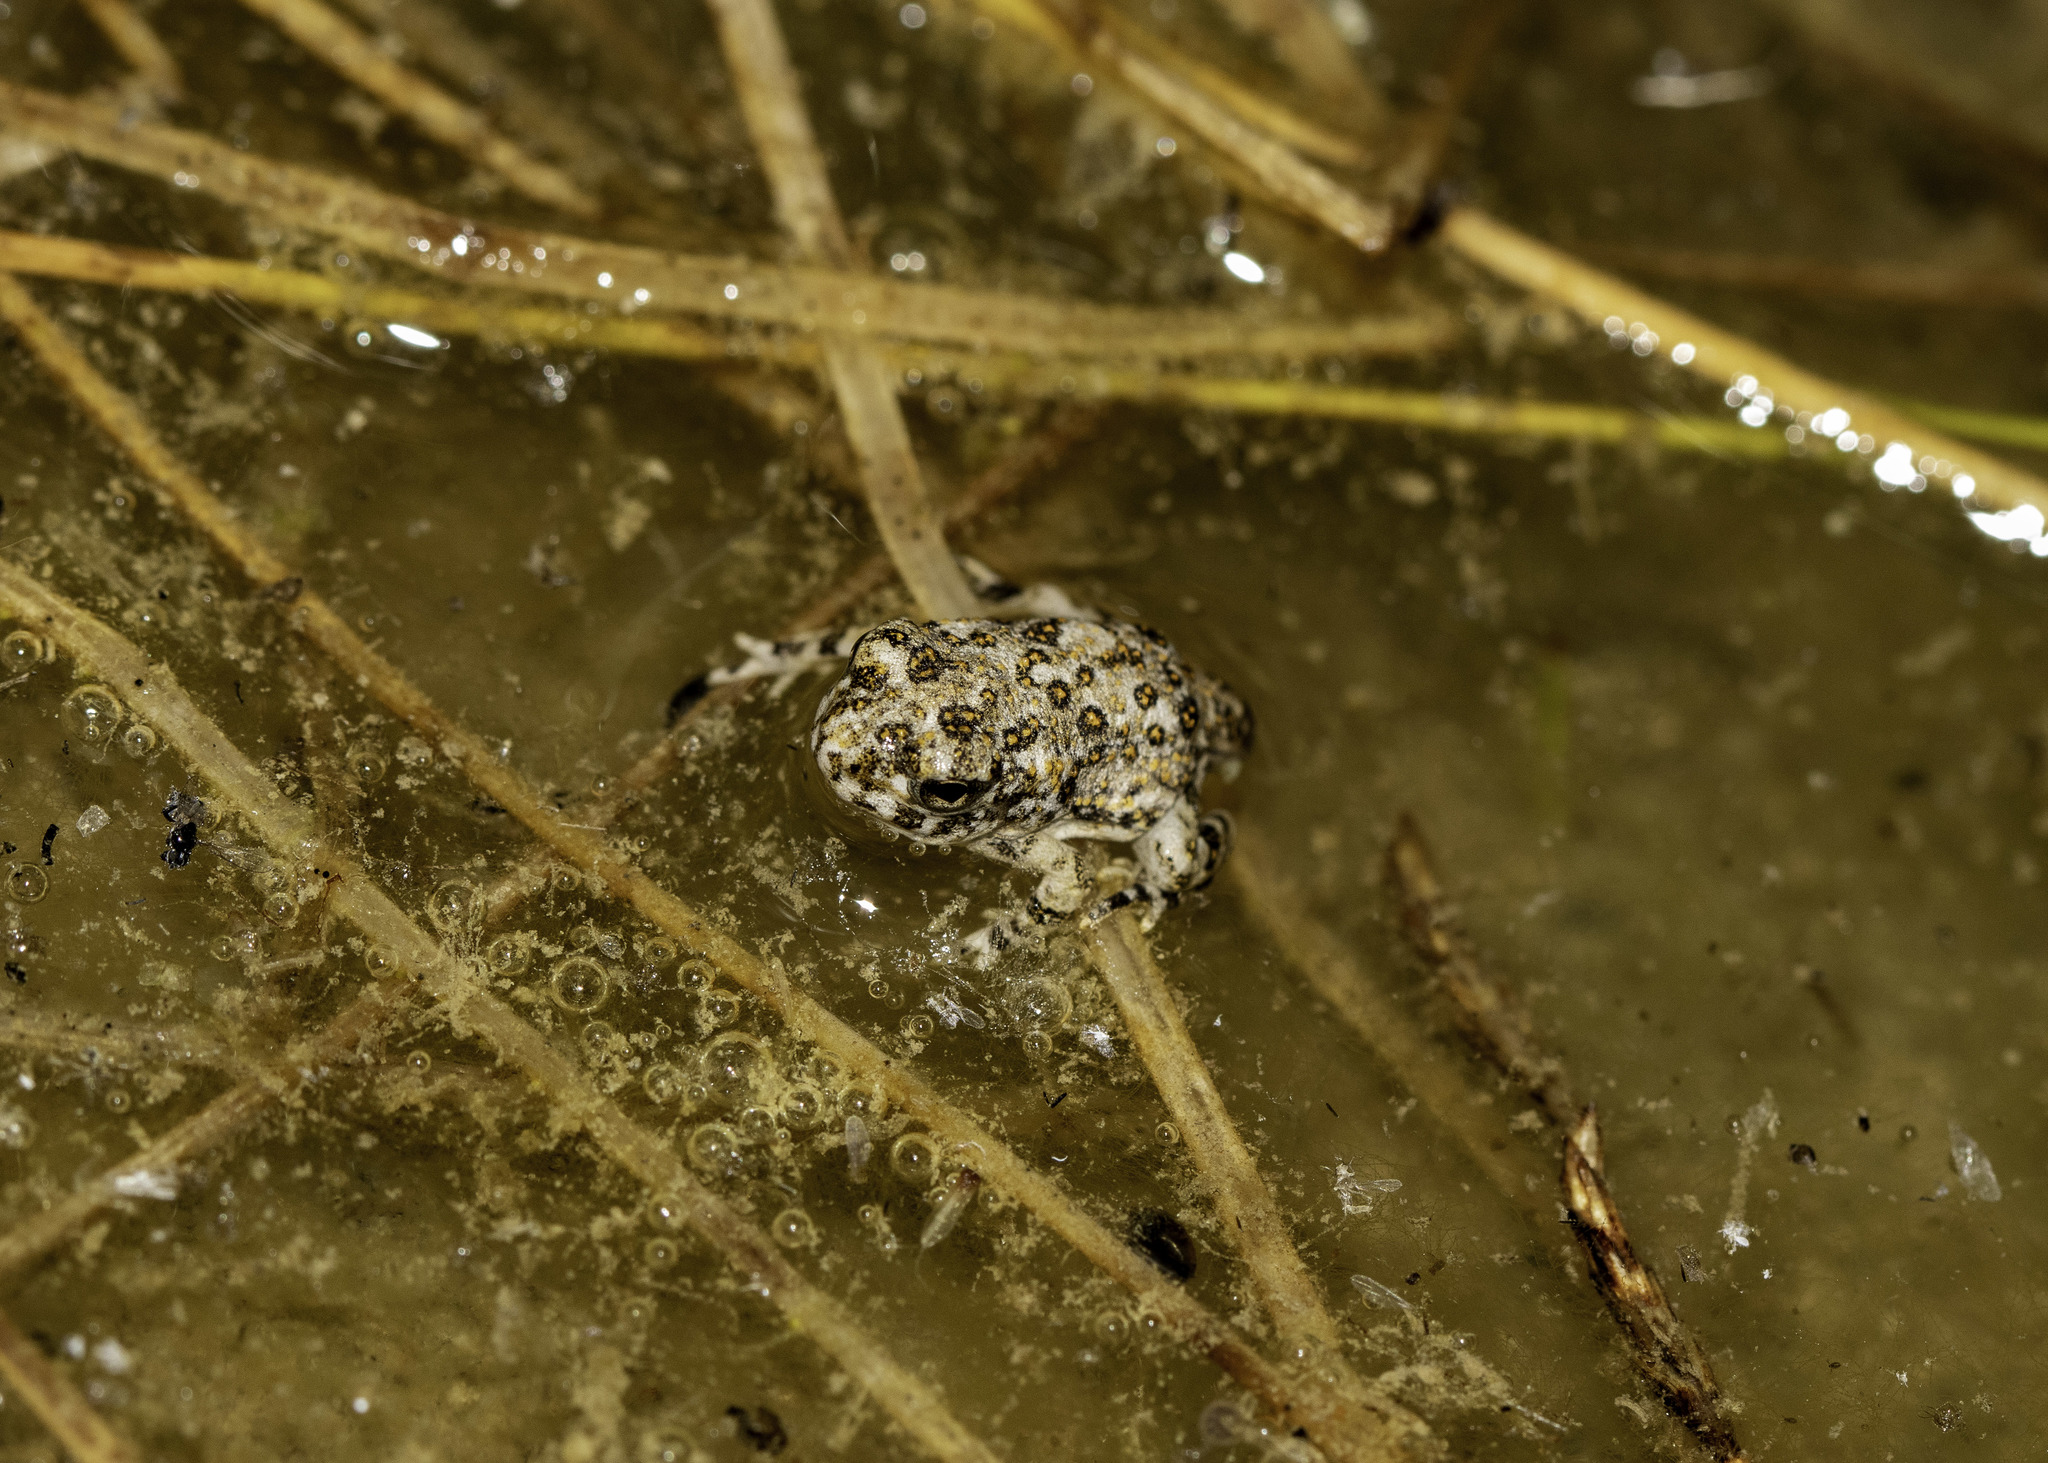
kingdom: Animalia
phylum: Chordata
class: Amphibia
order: Anura
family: Bufonidae
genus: Anaxyrus
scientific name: Anaxyrus californicus
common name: Arroyo toad
